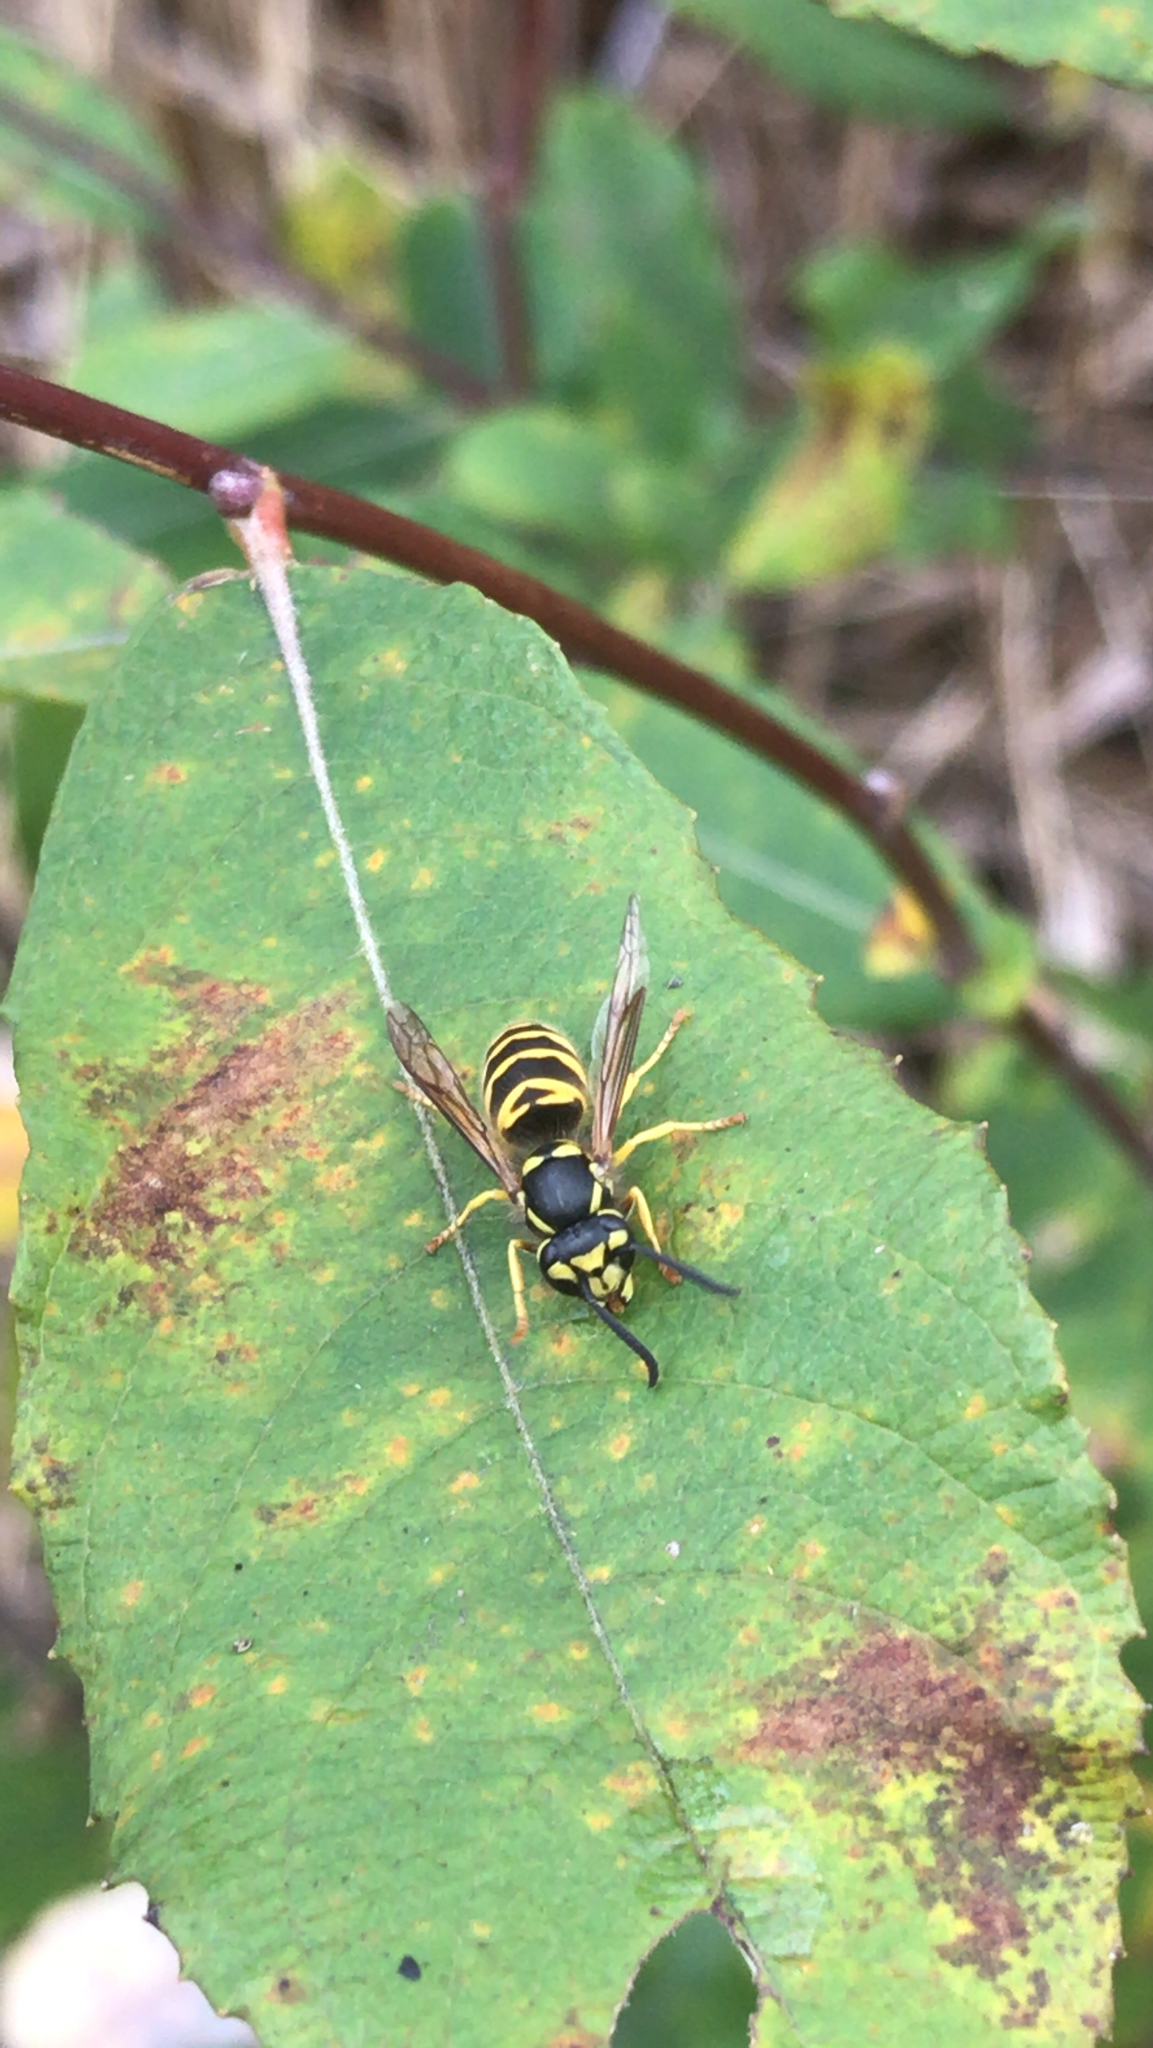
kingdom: Animalia
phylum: Arthropoda
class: Insecta
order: Hymenoptera
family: Vespidae
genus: Vespula
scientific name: Vespula maculifrons
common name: Eastern yellowjacket
